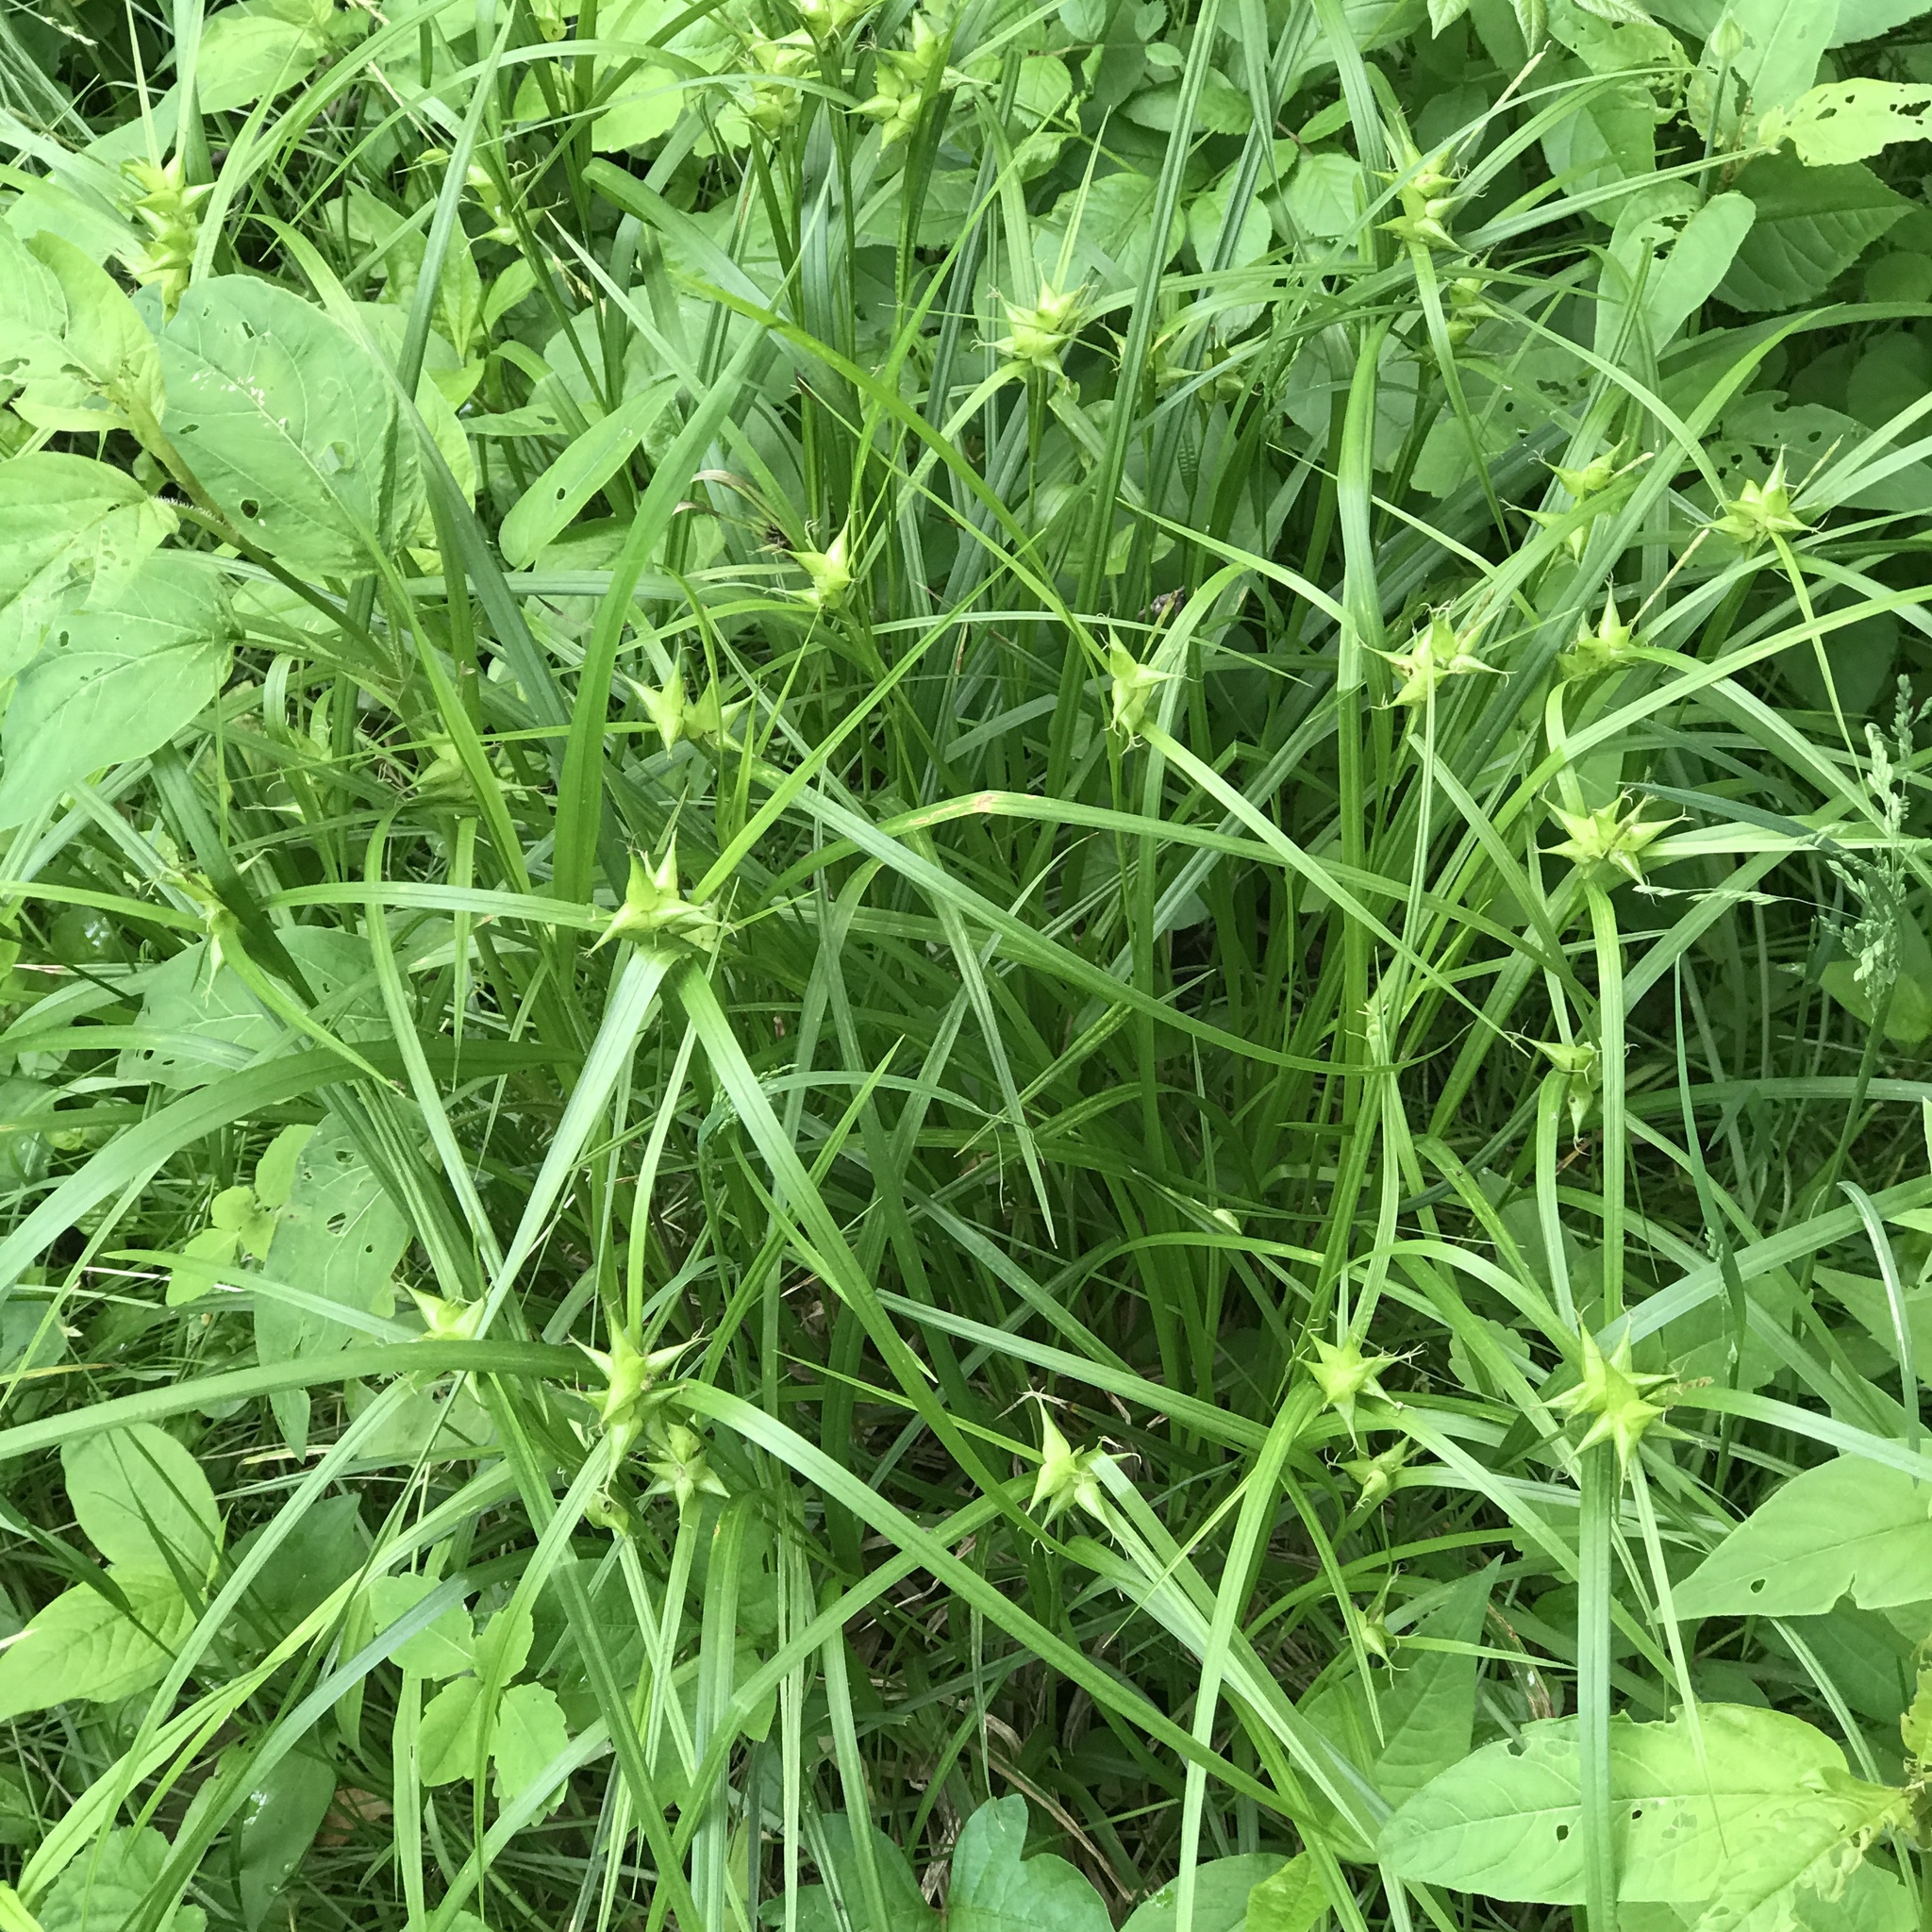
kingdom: Plantae
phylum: Tracheophyta
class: Liliopsida
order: Poales
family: Cyperaceae
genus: Carex
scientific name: Carex intumescens
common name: Greater bladder sedge
